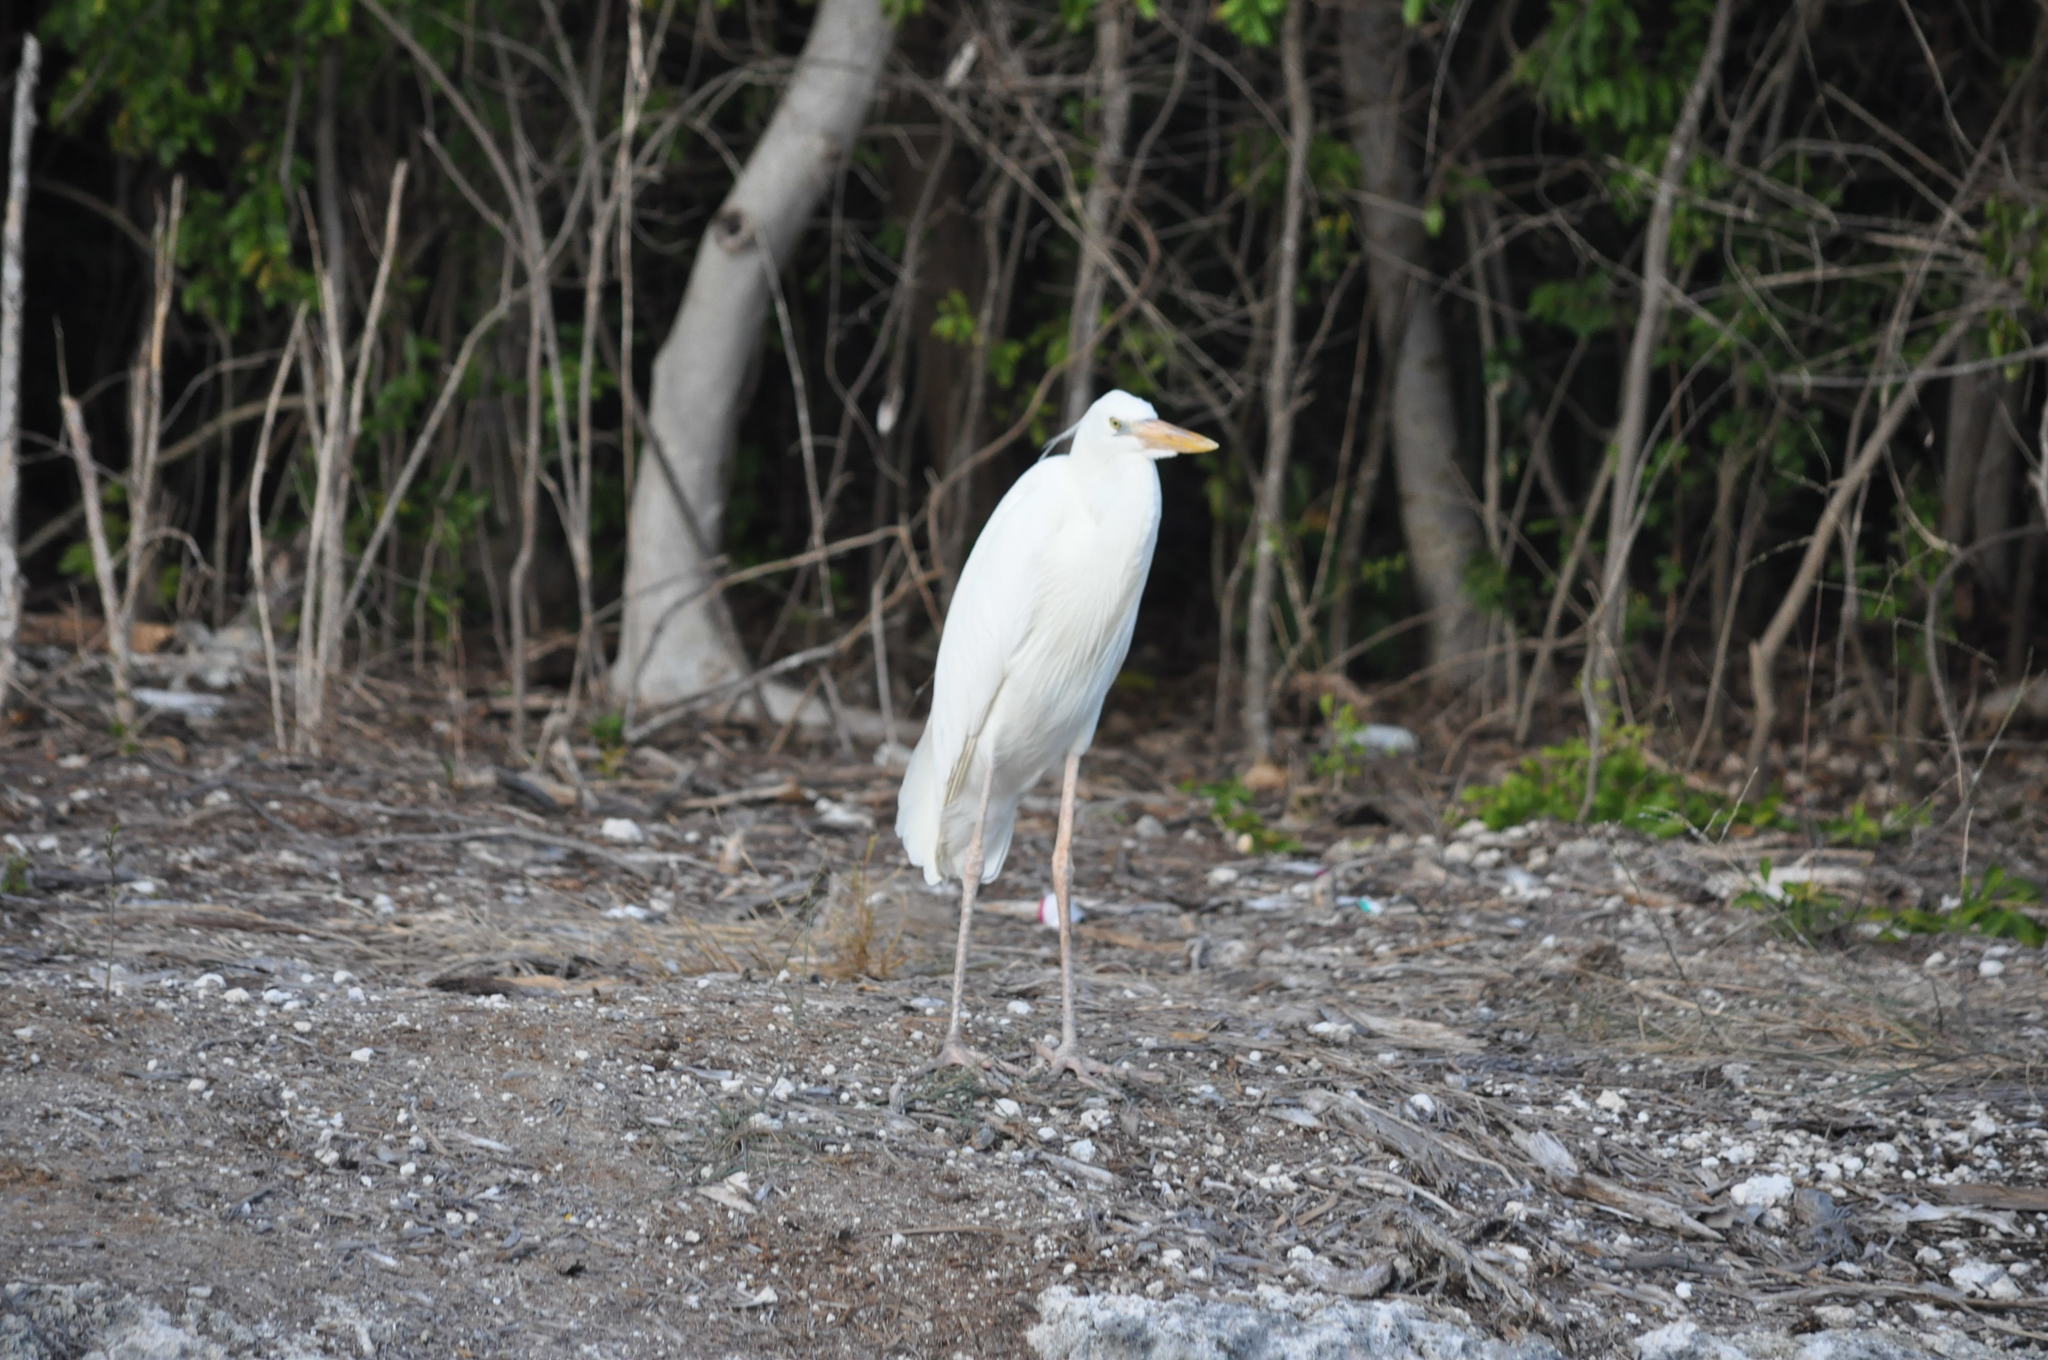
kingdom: Animalia
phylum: Chordata
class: Aves
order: Pelecaniformes
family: Ardeidae
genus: Ardea
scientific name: Ardea herodias
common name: Great blue heron
